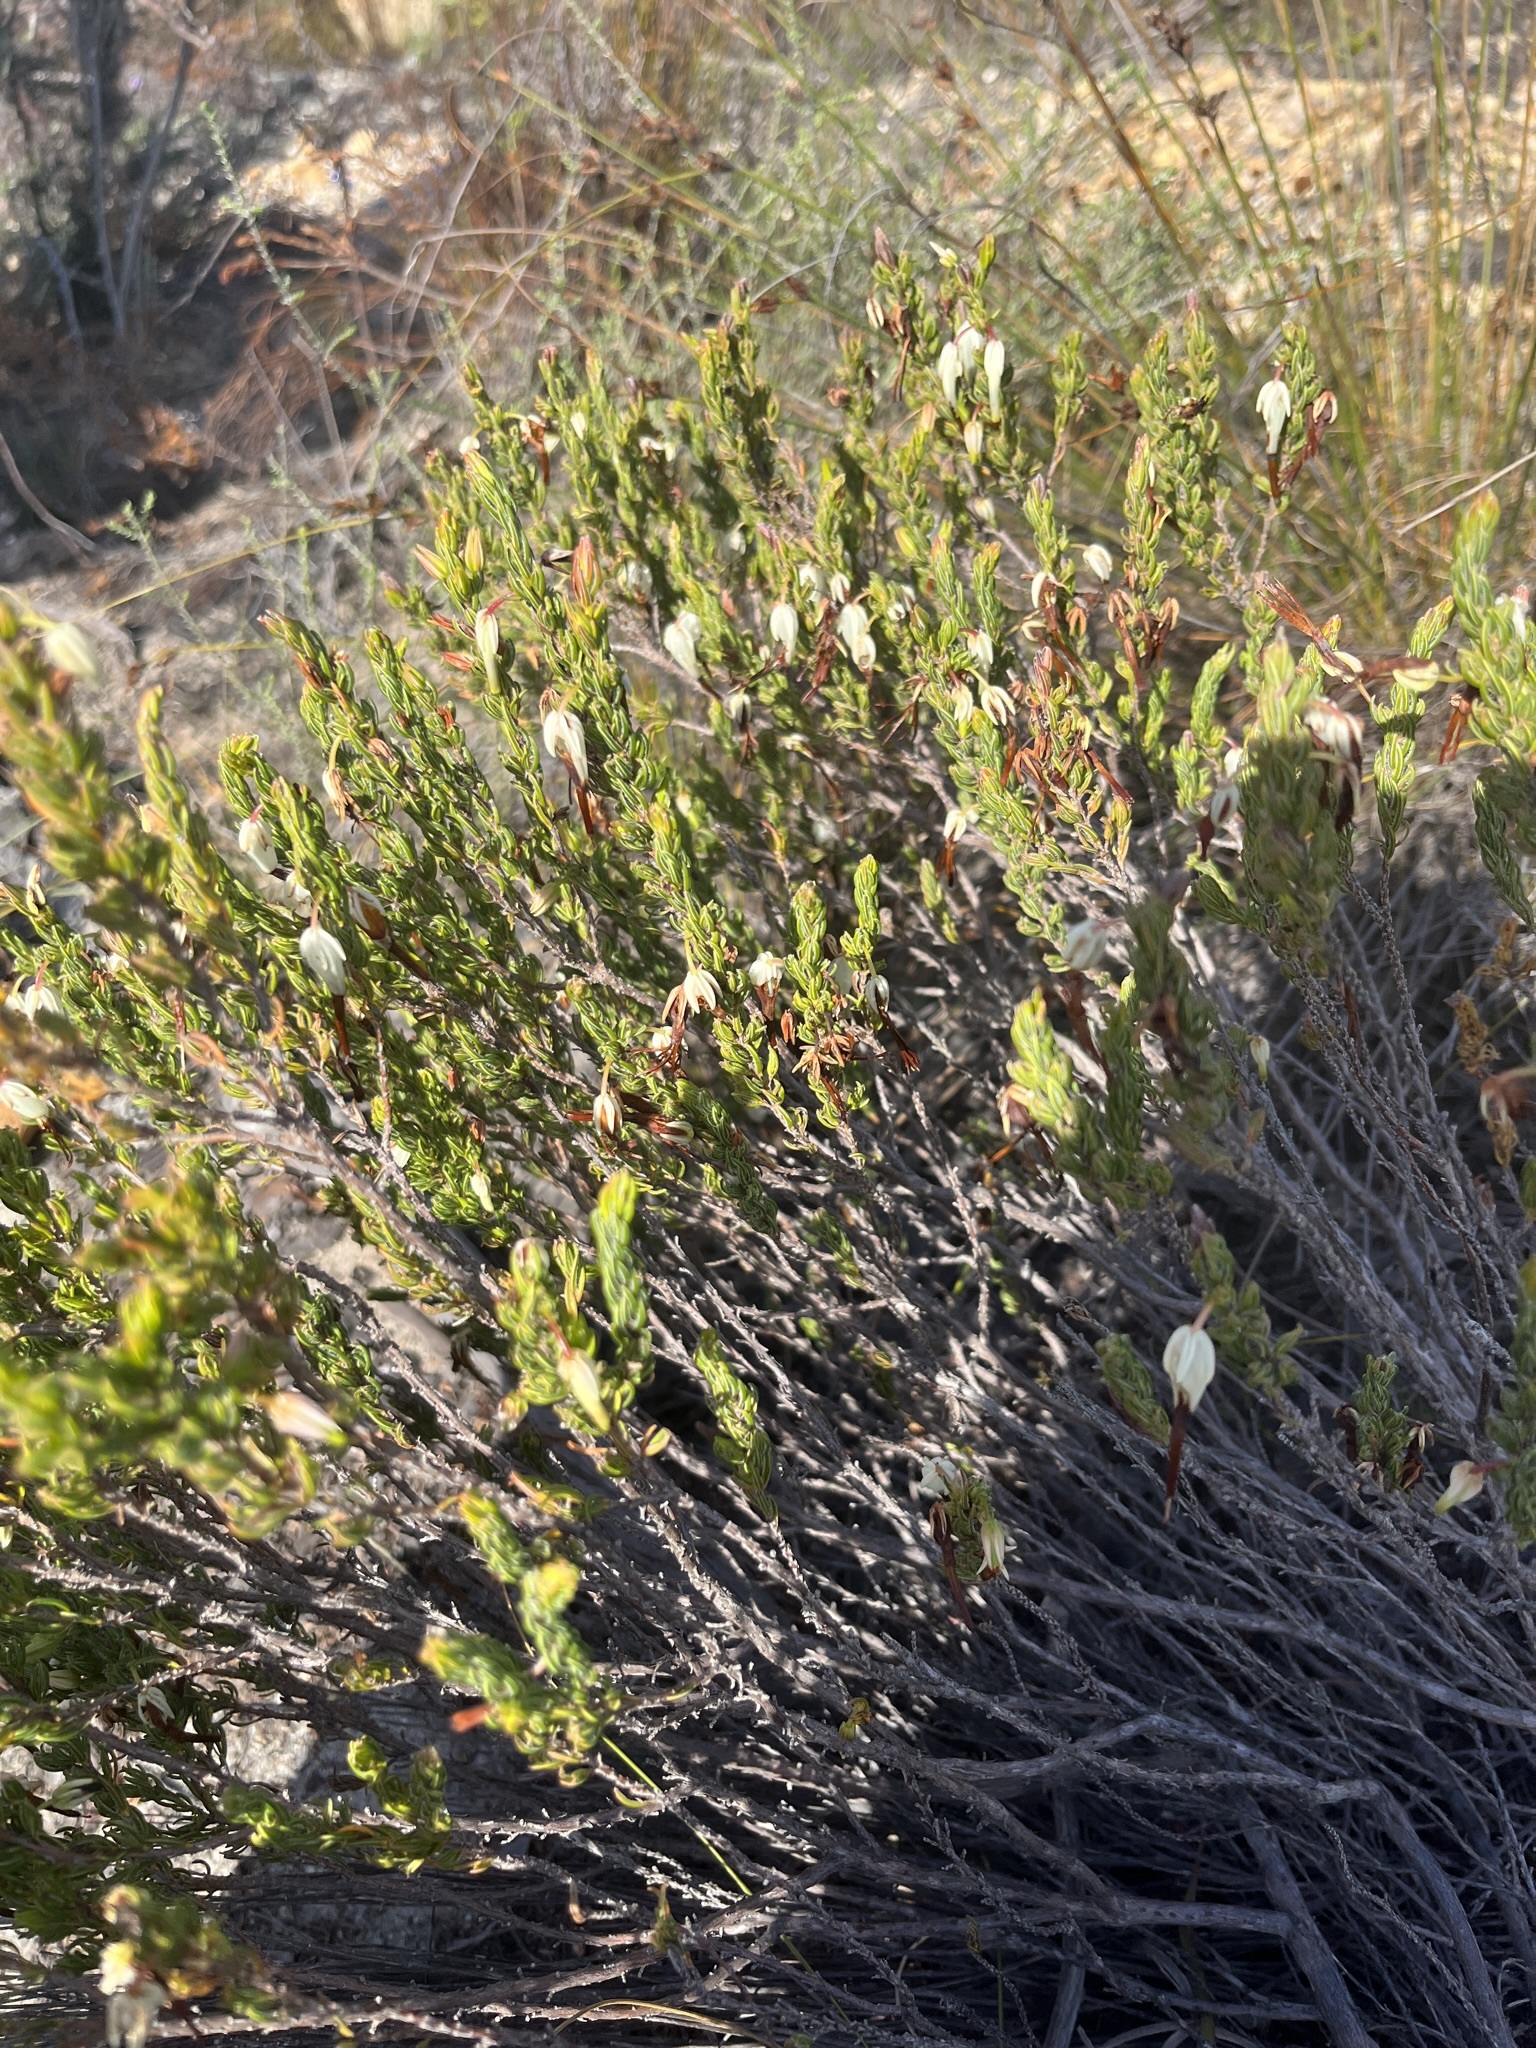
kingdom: Plantae
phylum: Tracheophyta
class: Magnoliopsida
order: Ericales
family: Ericaceae
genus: Erica
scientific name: Erica plukenetii
